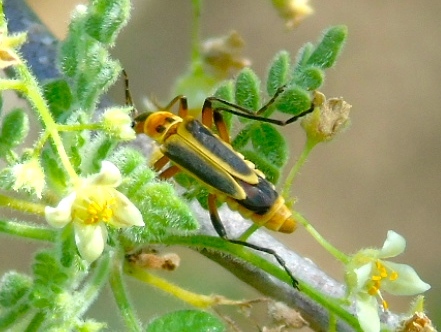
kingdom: Animalia
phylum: Arthropoda
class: Insecta
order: Coleoptera
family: Cantharidae
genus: Chauliognathus
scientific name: Chauliognathus
